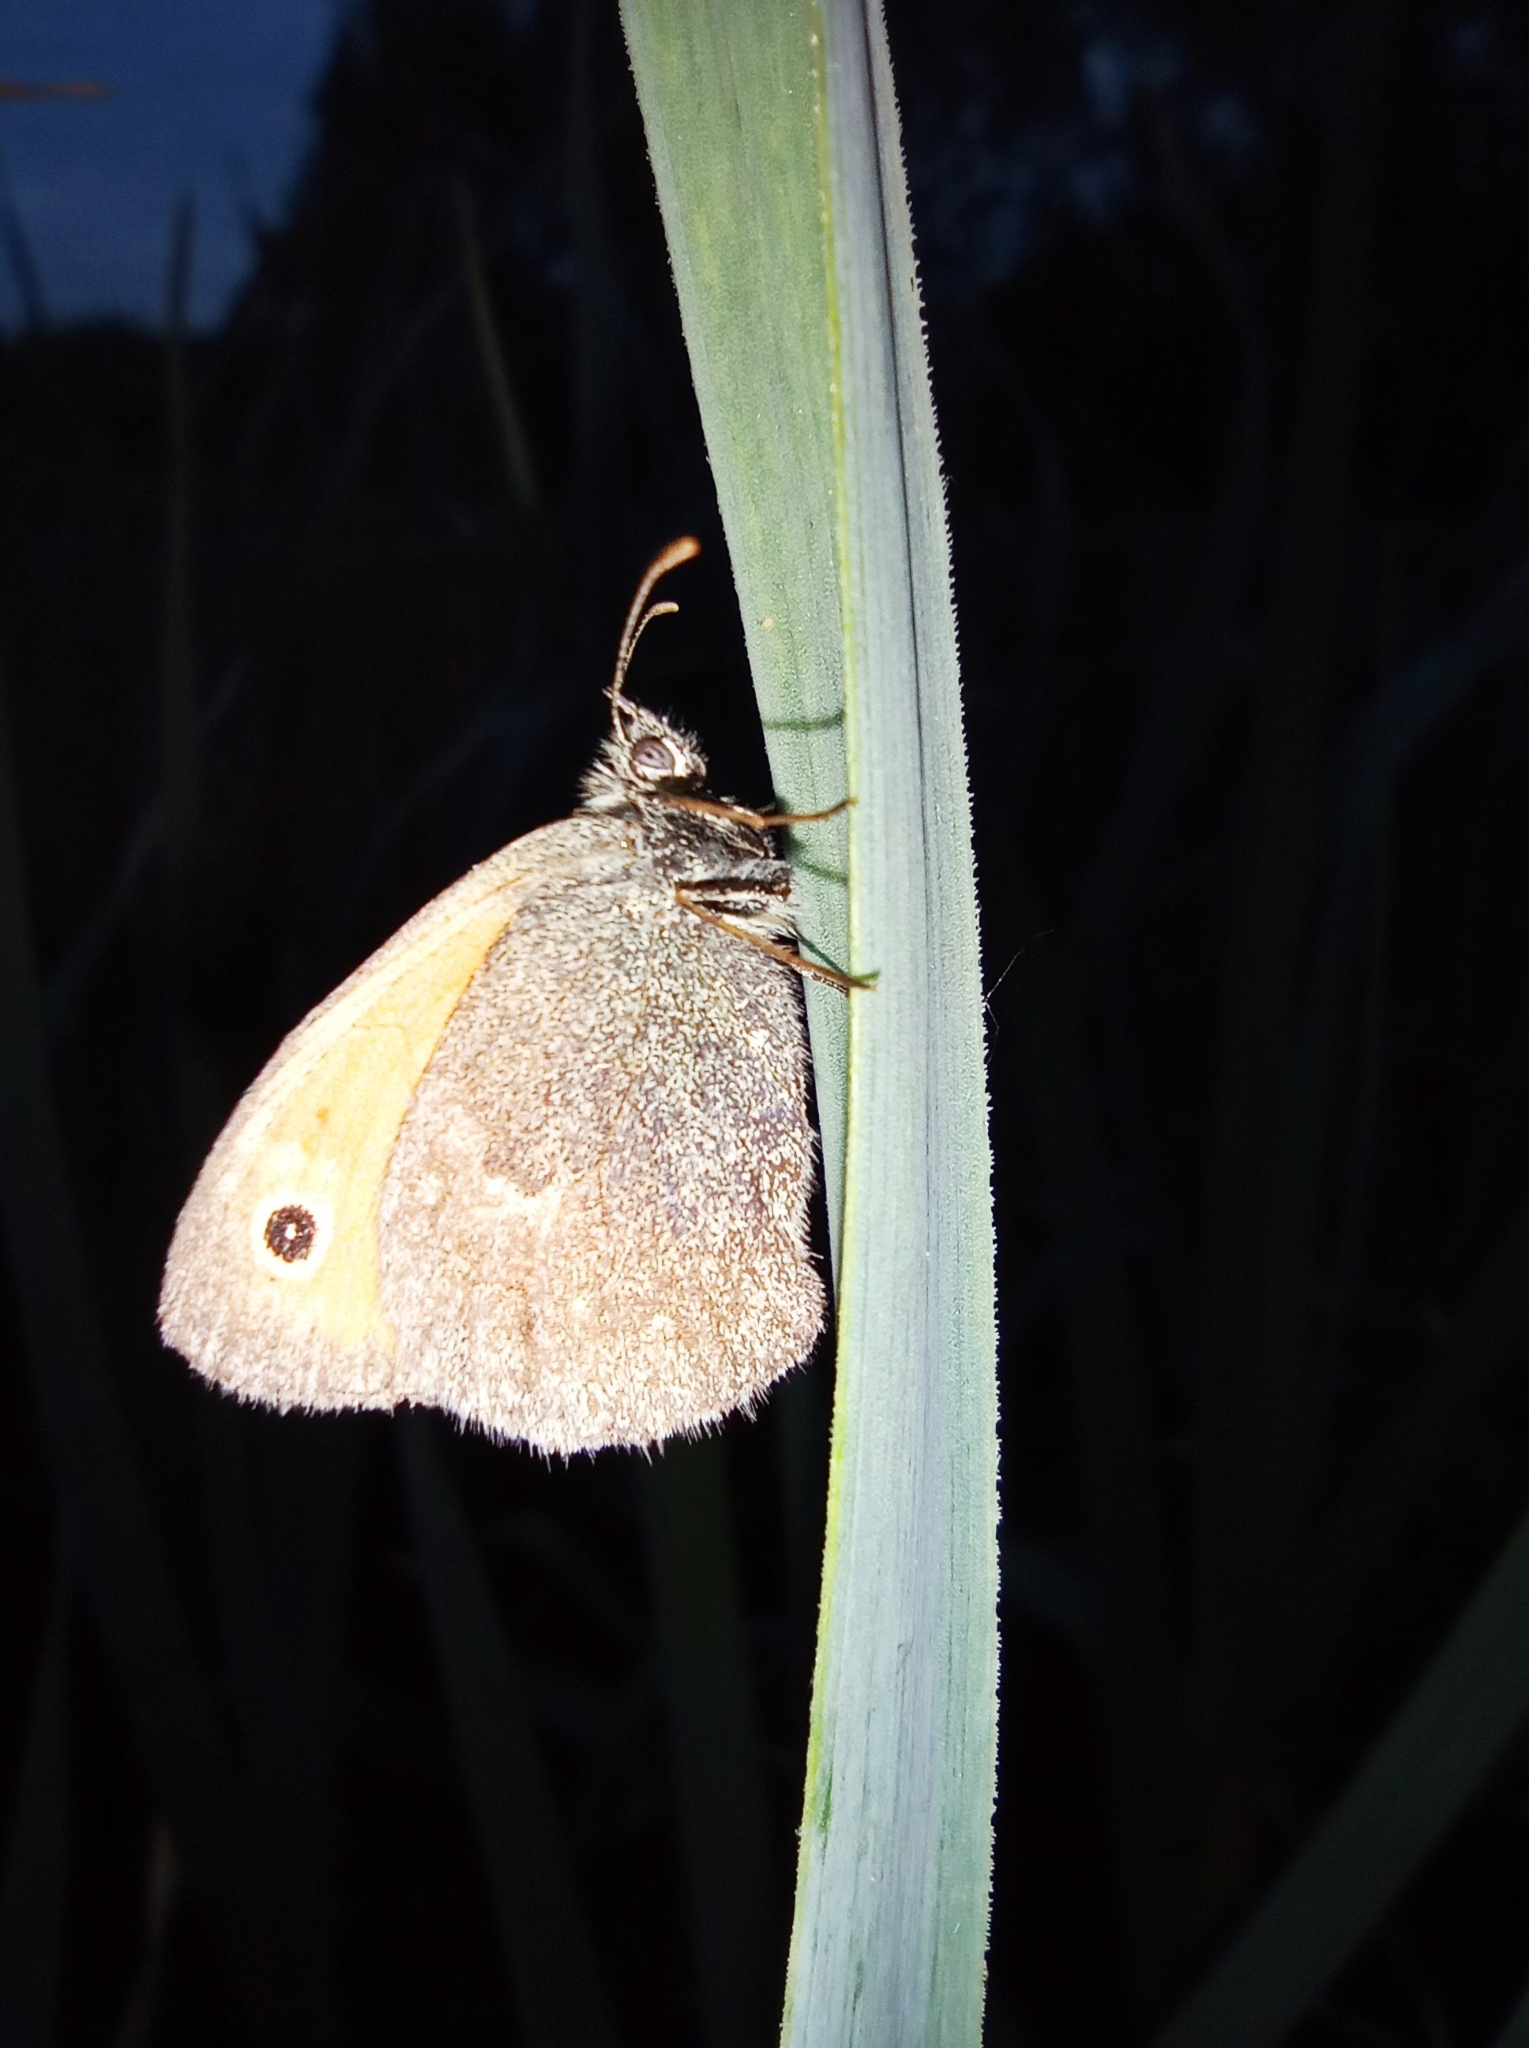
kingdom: Animalia
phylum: Arthropoda
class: Insecta
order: Lepidoptera
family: Nymphalidae
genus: Coenonympha
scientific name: Coenonympha pamphilus
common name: Small heath
